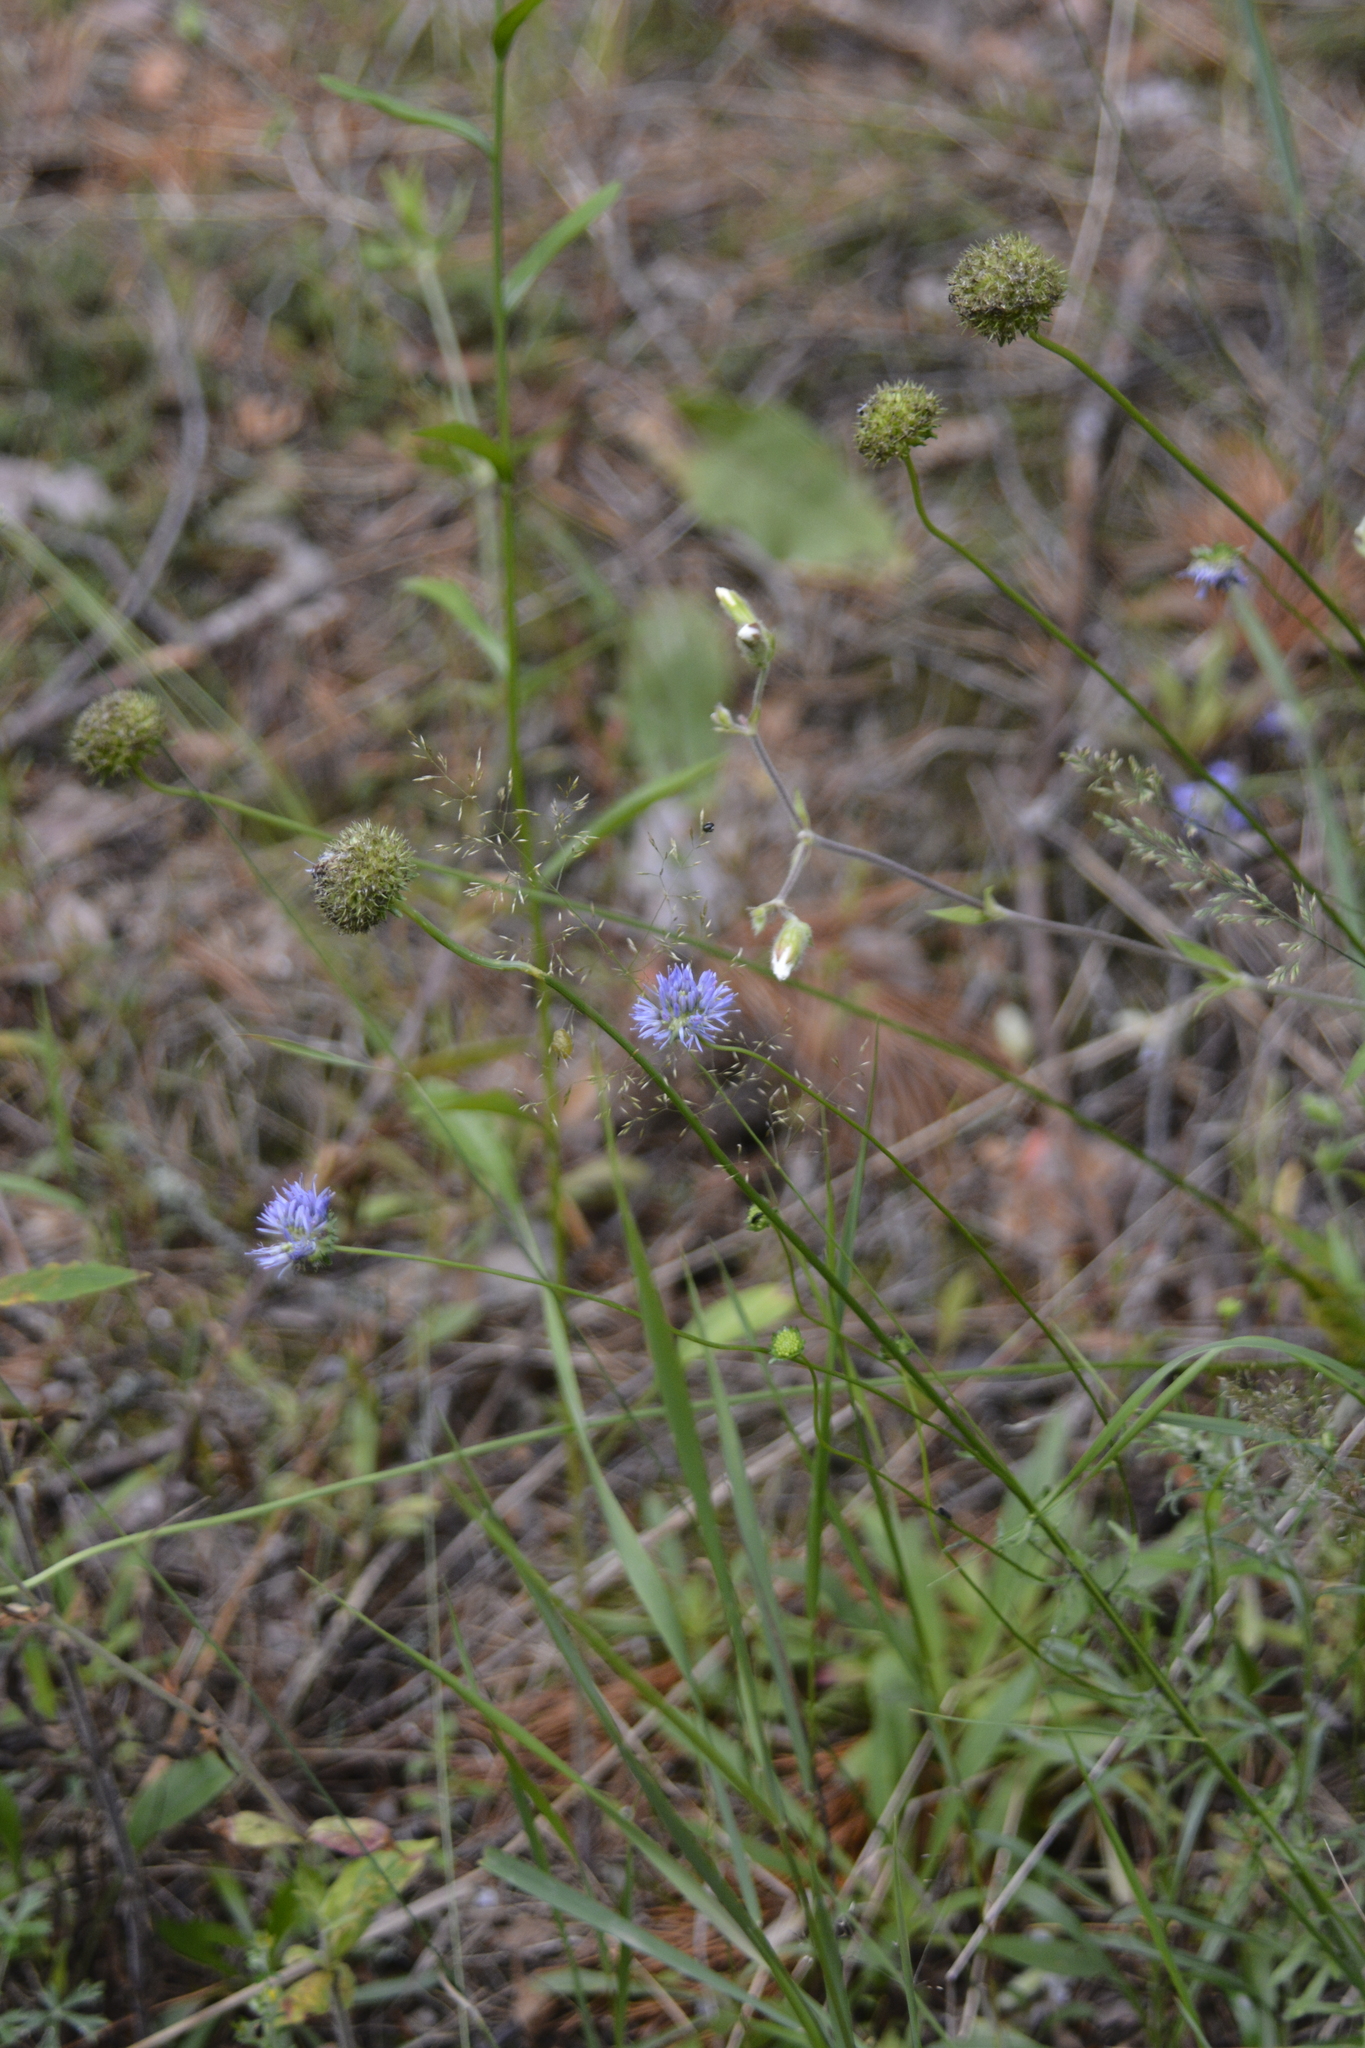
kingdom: Plantae
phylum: Tracheophyta
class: Magnoliopsida
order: Asterales
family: Campanulaceae
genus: Jasione
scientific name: Jasione montana
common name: Sheep's-bit
